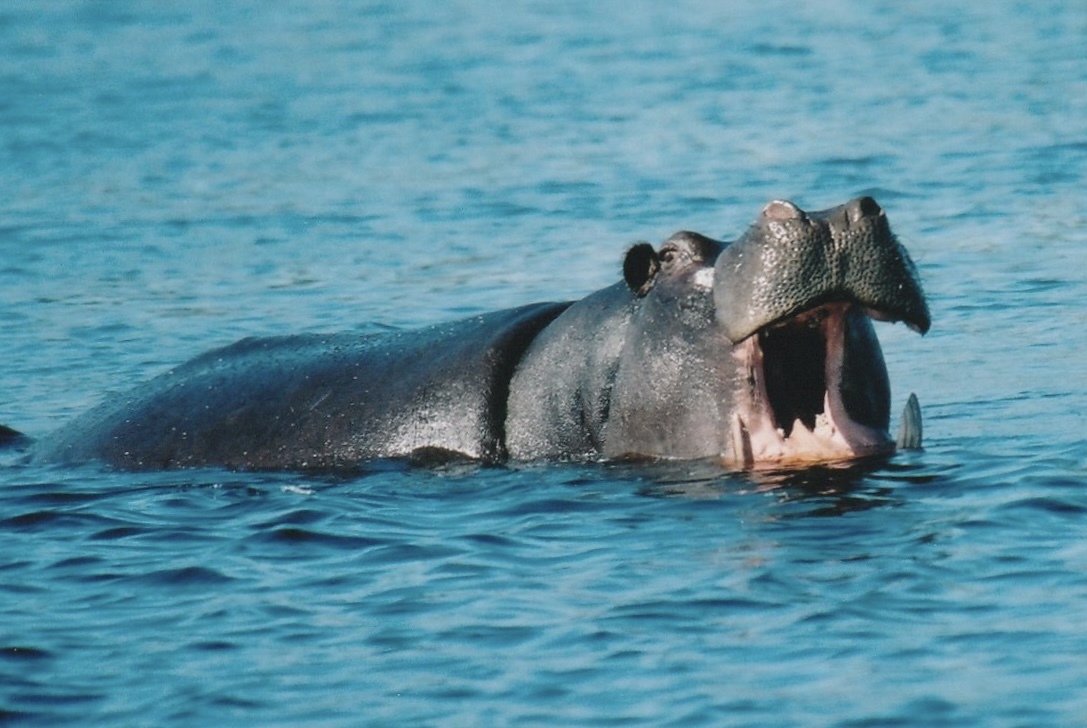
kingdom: Animalia
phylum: Chordata
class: Mammalia
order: Artiodactyla
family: Hippopotamidae
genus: Hippopotamus
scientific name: Hippopotamus amphibius
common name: Common hippopotamus
